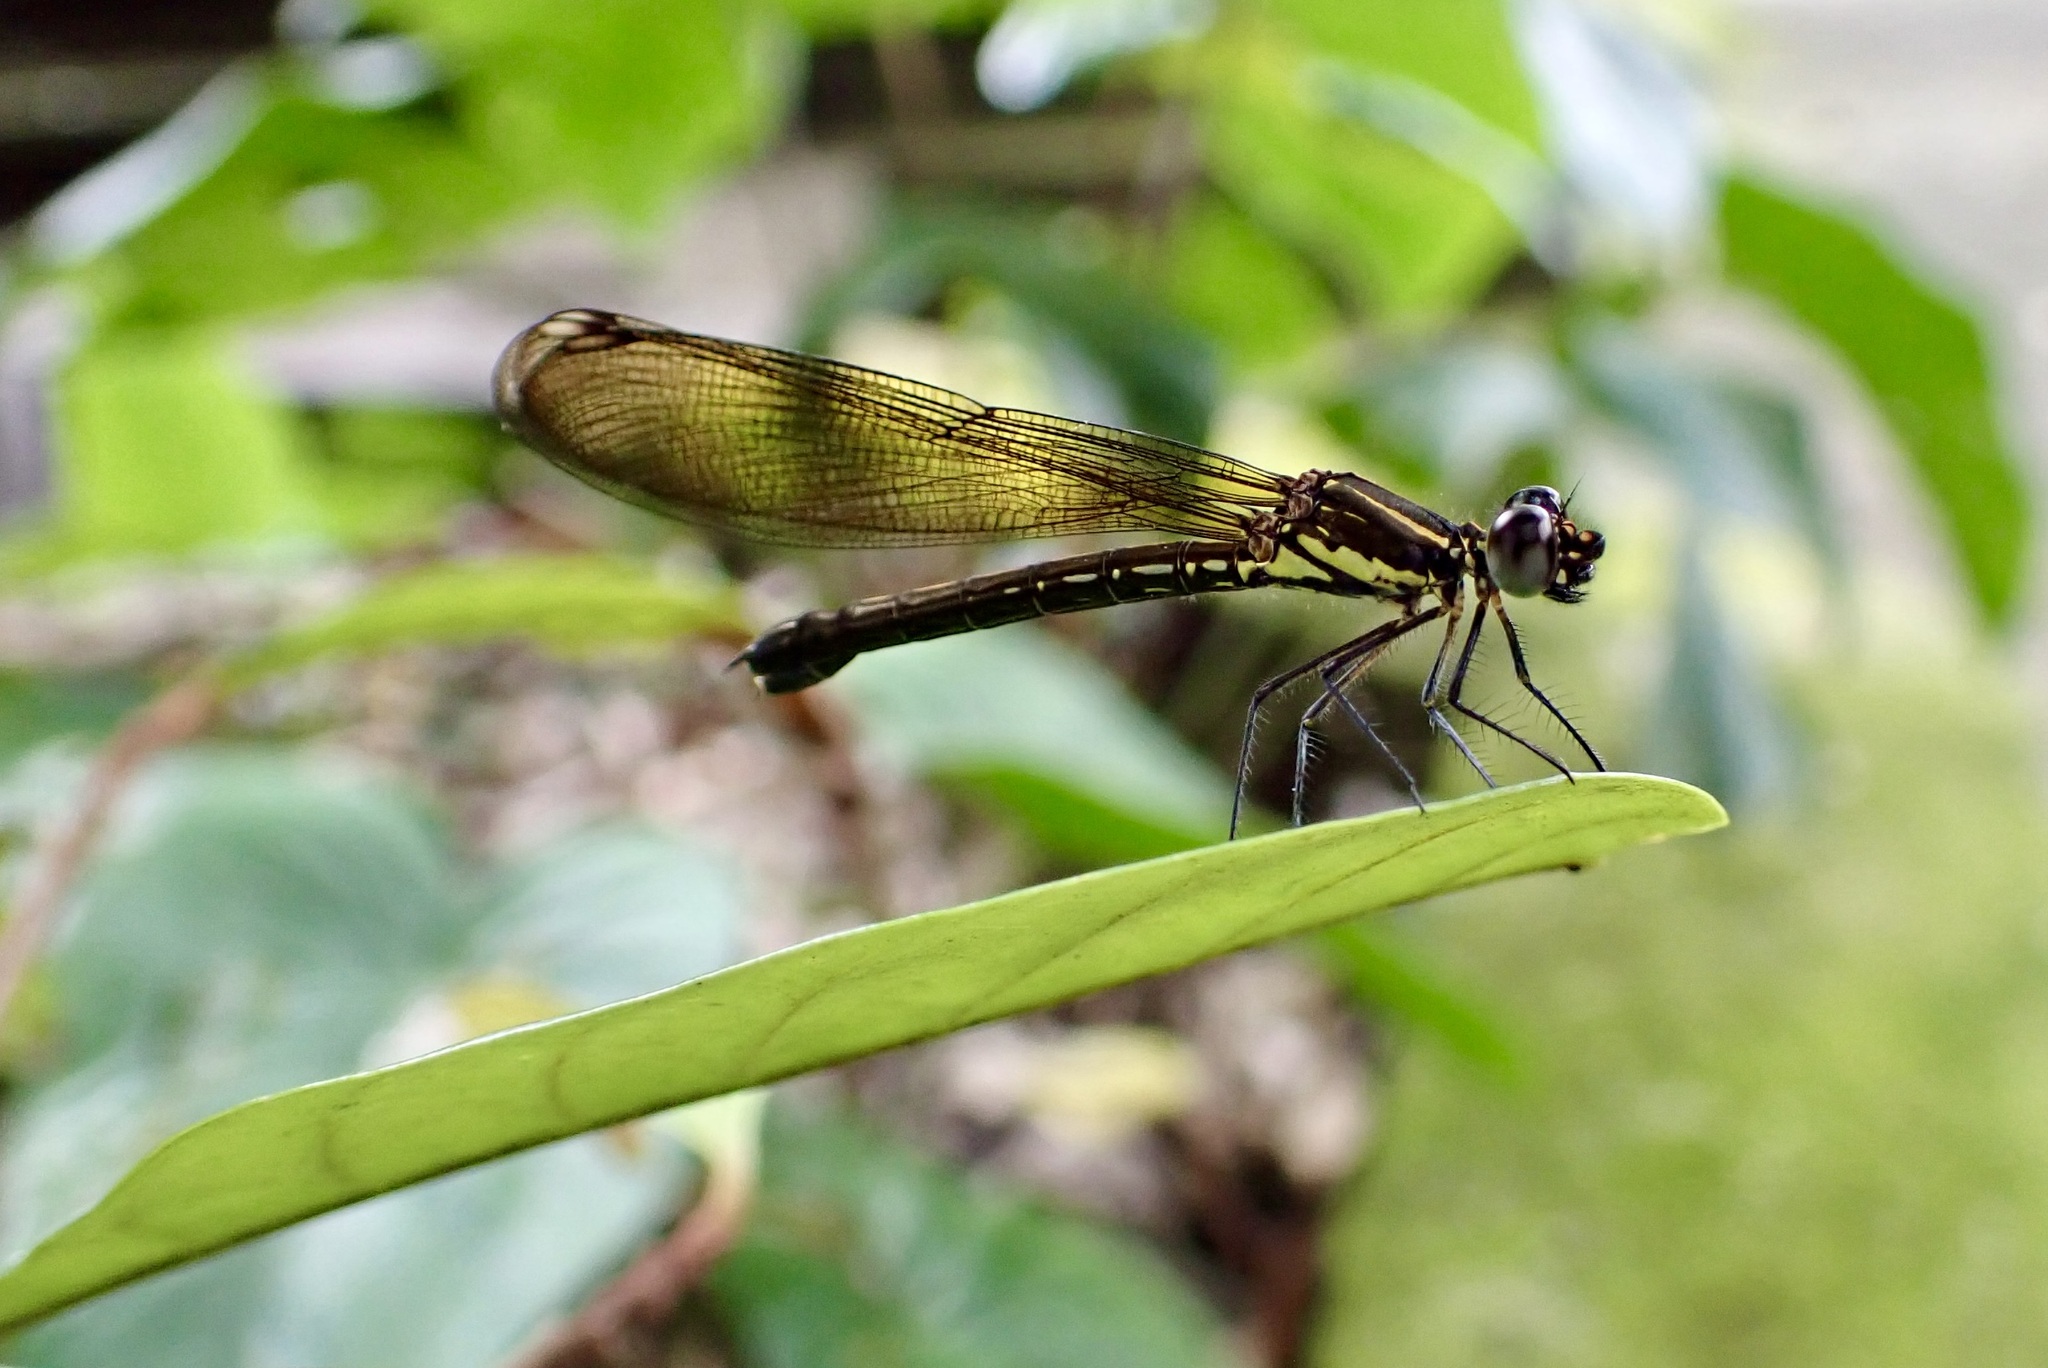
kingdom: Animalia
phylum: Arthropoda
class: Insecta
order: Odonata
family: Chlorocyphidae
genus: Heliocypha
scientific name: Heliocypha fenestrata
